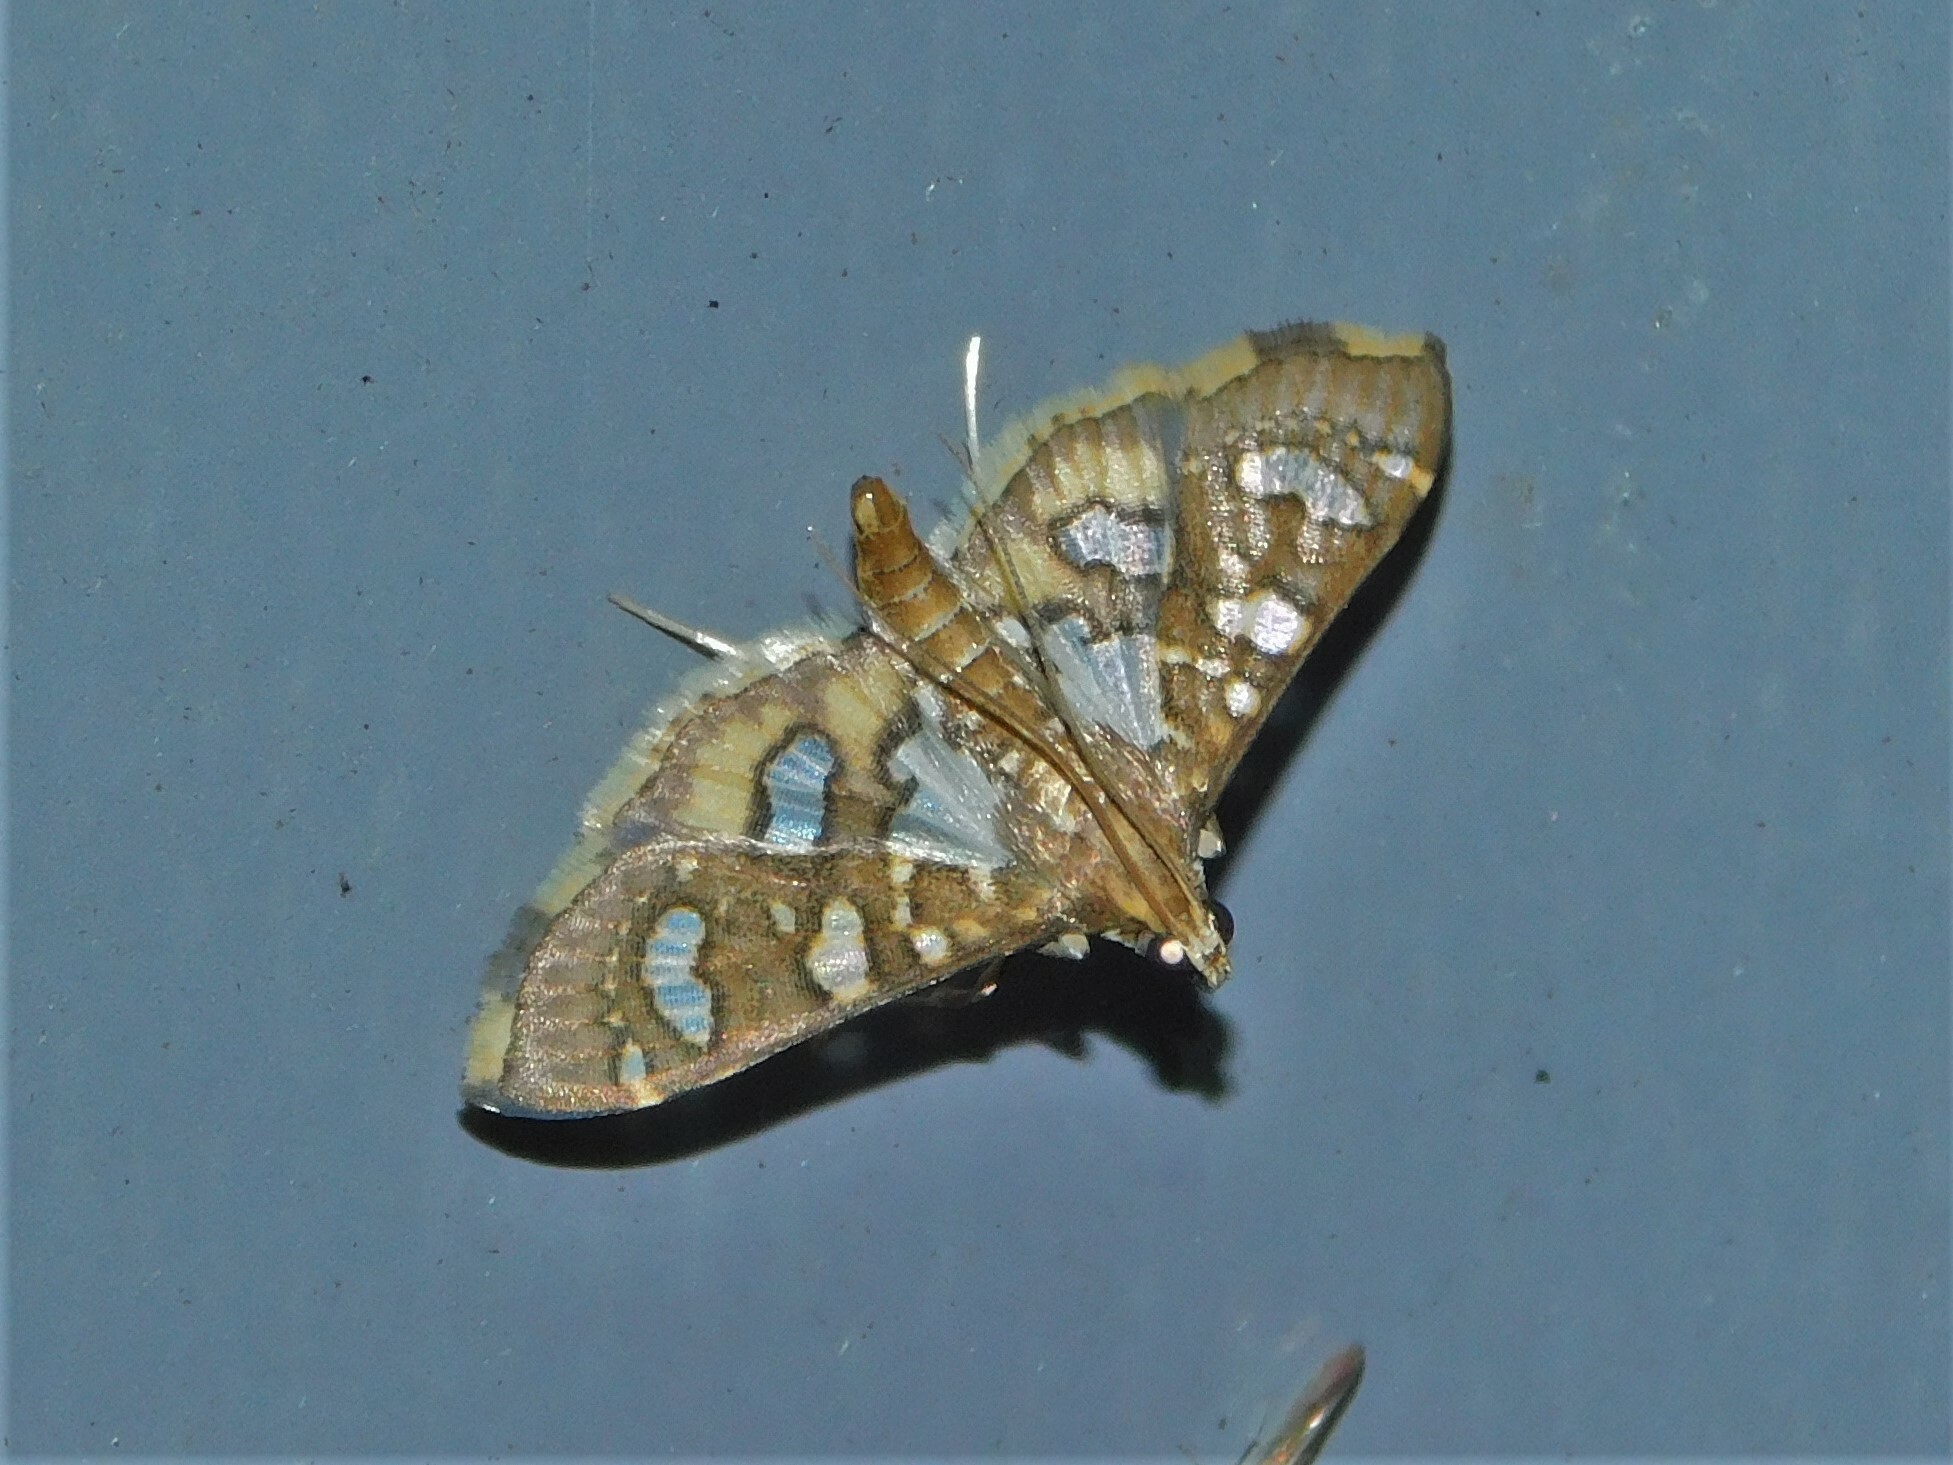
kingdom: Animalia
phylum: Arthropoda
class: Insecta
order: Lepidoptera
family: Crambidae
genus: Nausinoe
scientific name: Nausinoe quadrinalis
